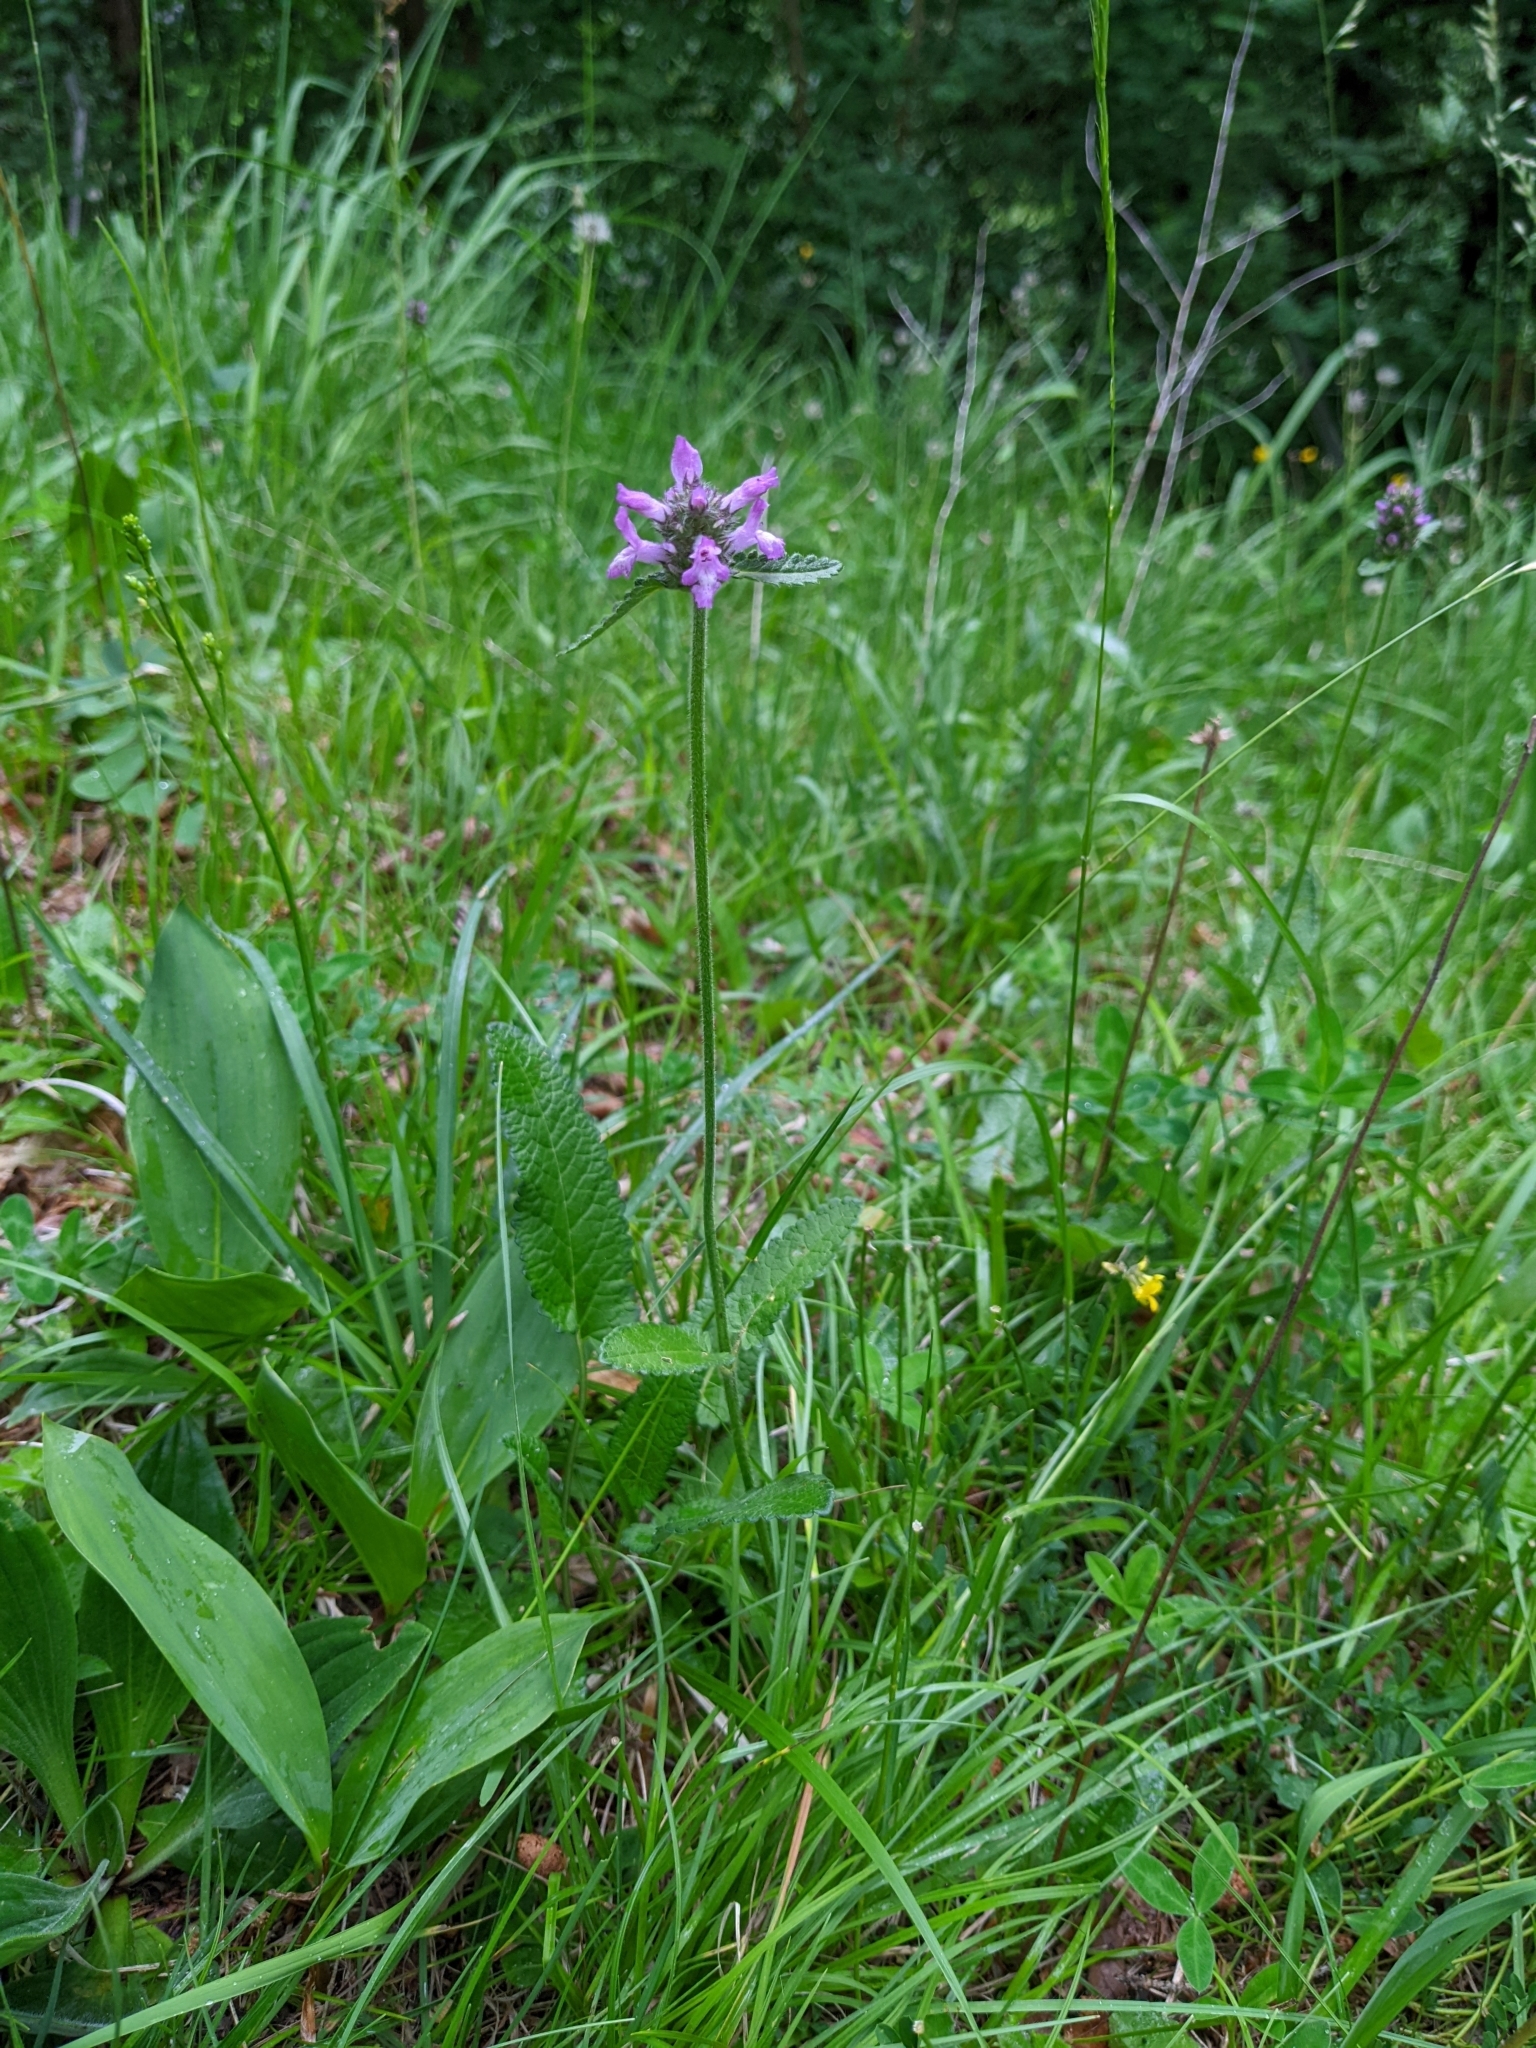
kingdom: Plantae
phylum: Tracheophyta
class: Magnoliopsida
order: Lamiales
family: Lamiaceae
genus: Betonica
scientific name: Betonica officinalis
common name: Bishop's-wort
